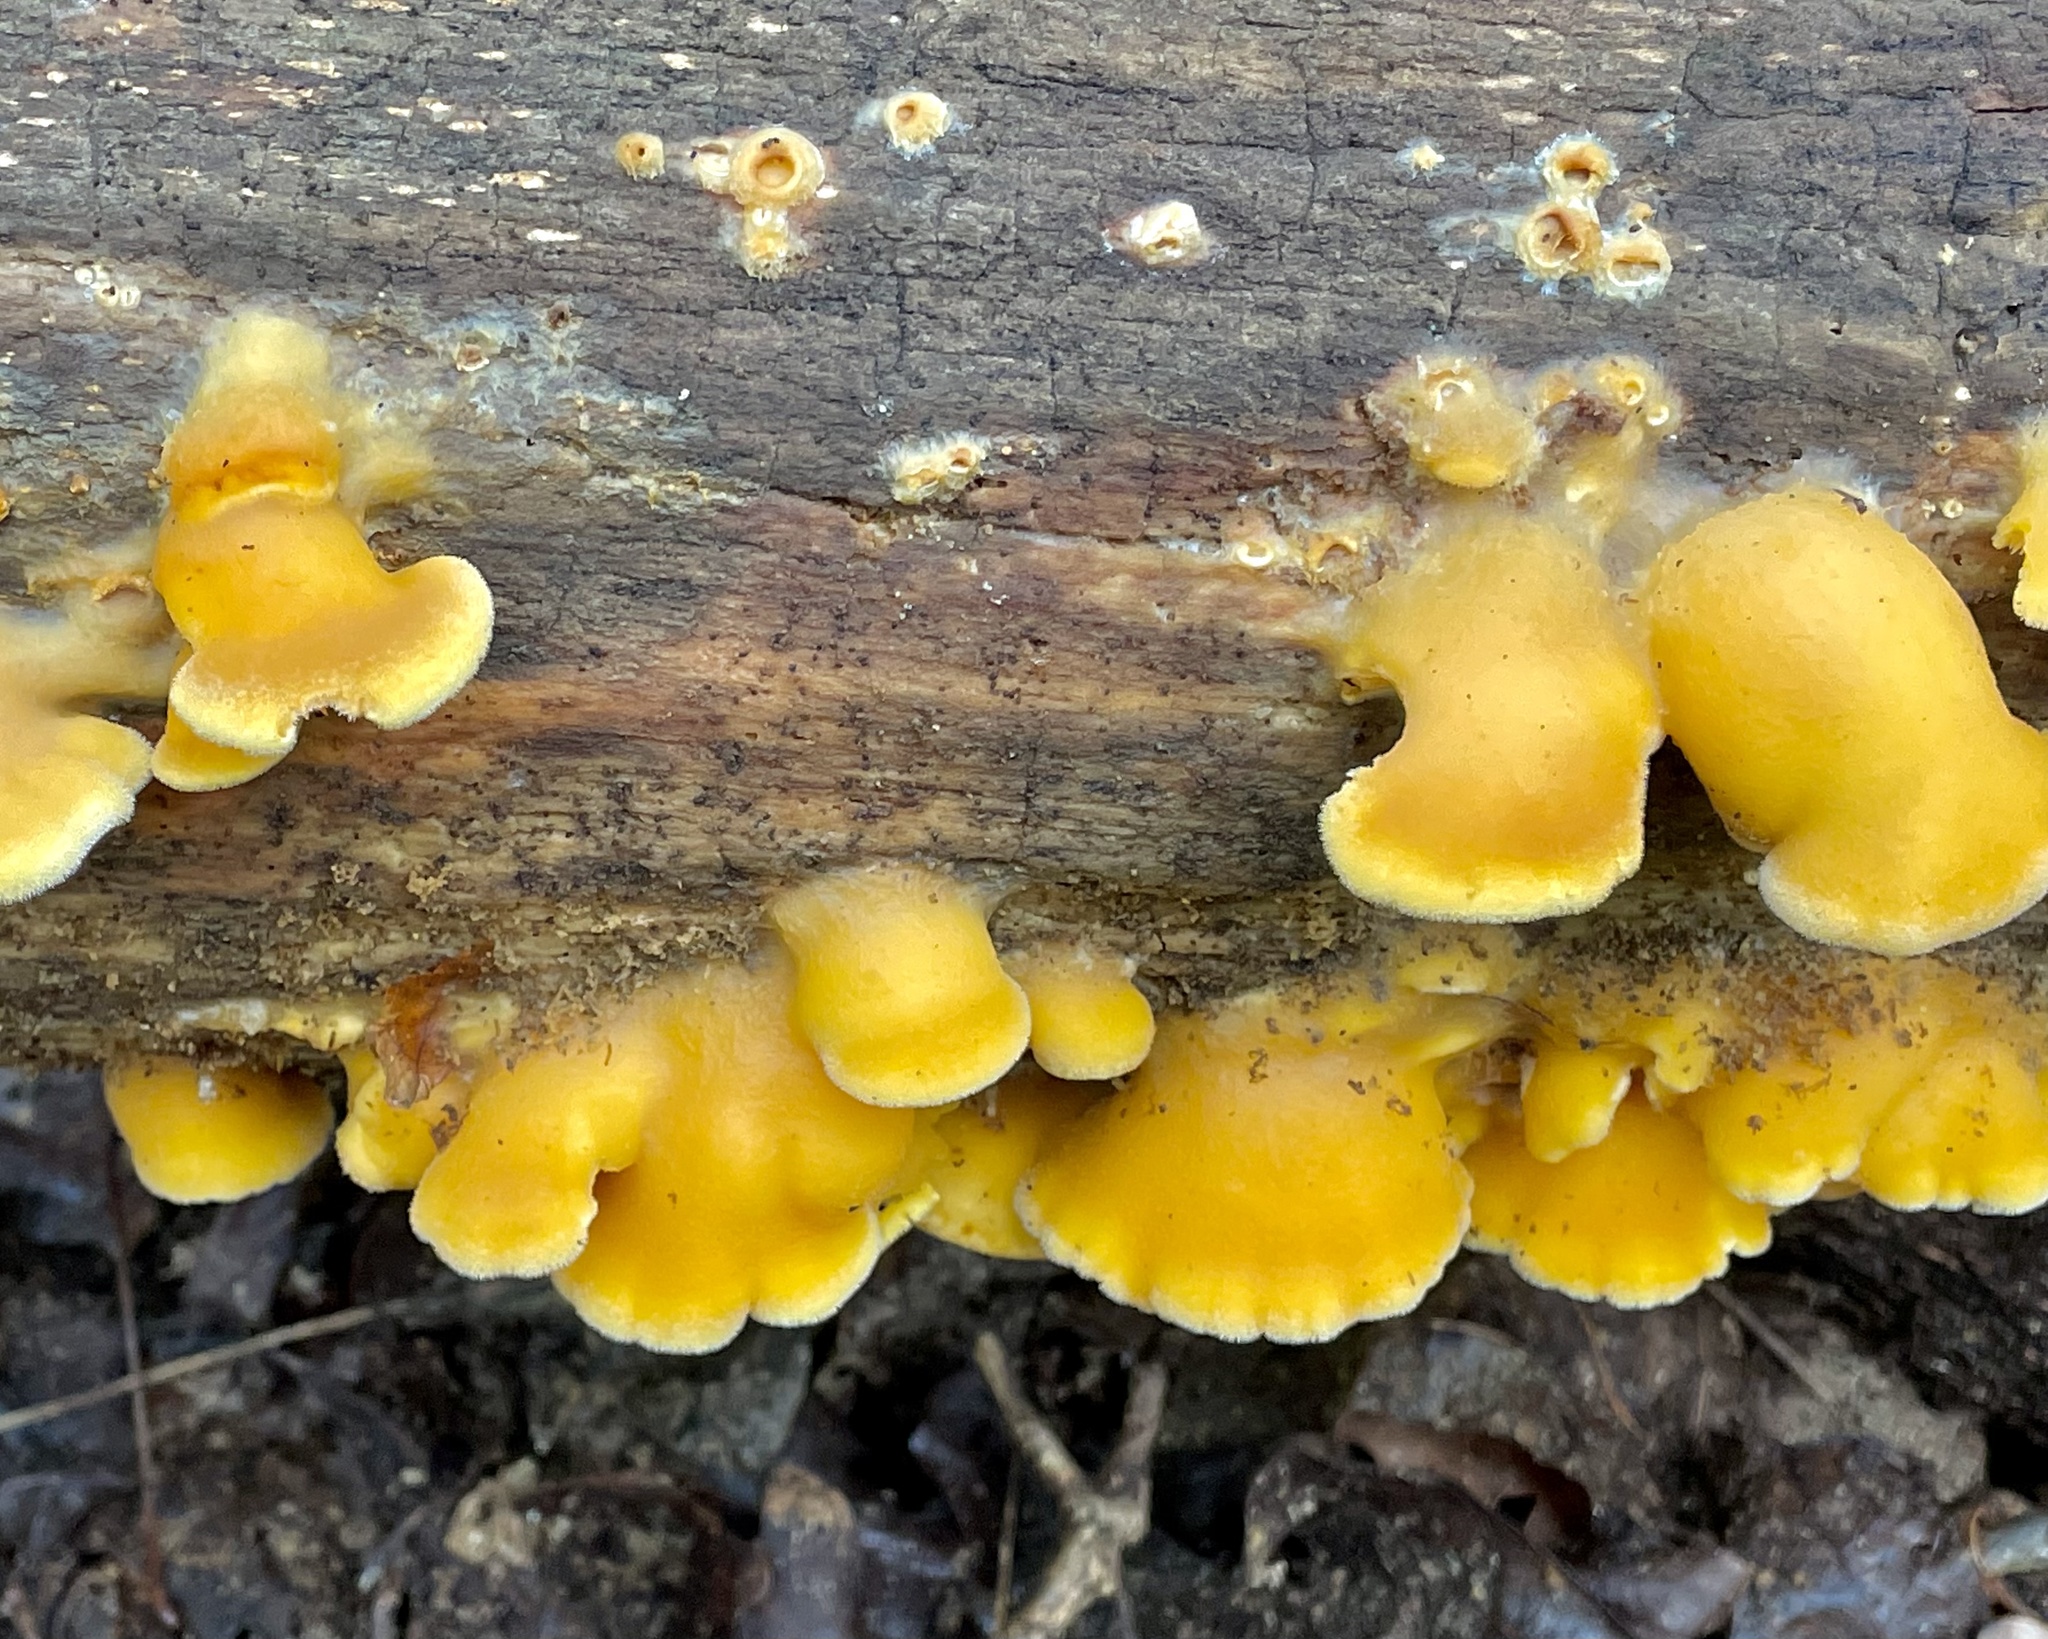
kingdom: Fungi
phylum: Basidiomycota
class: Agaricomycetes
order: Agaricales
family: Phyllotopsidaceae
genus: Phyllotopsis
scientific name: Phyllotopsis nidulans
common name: Orange mock oyster
